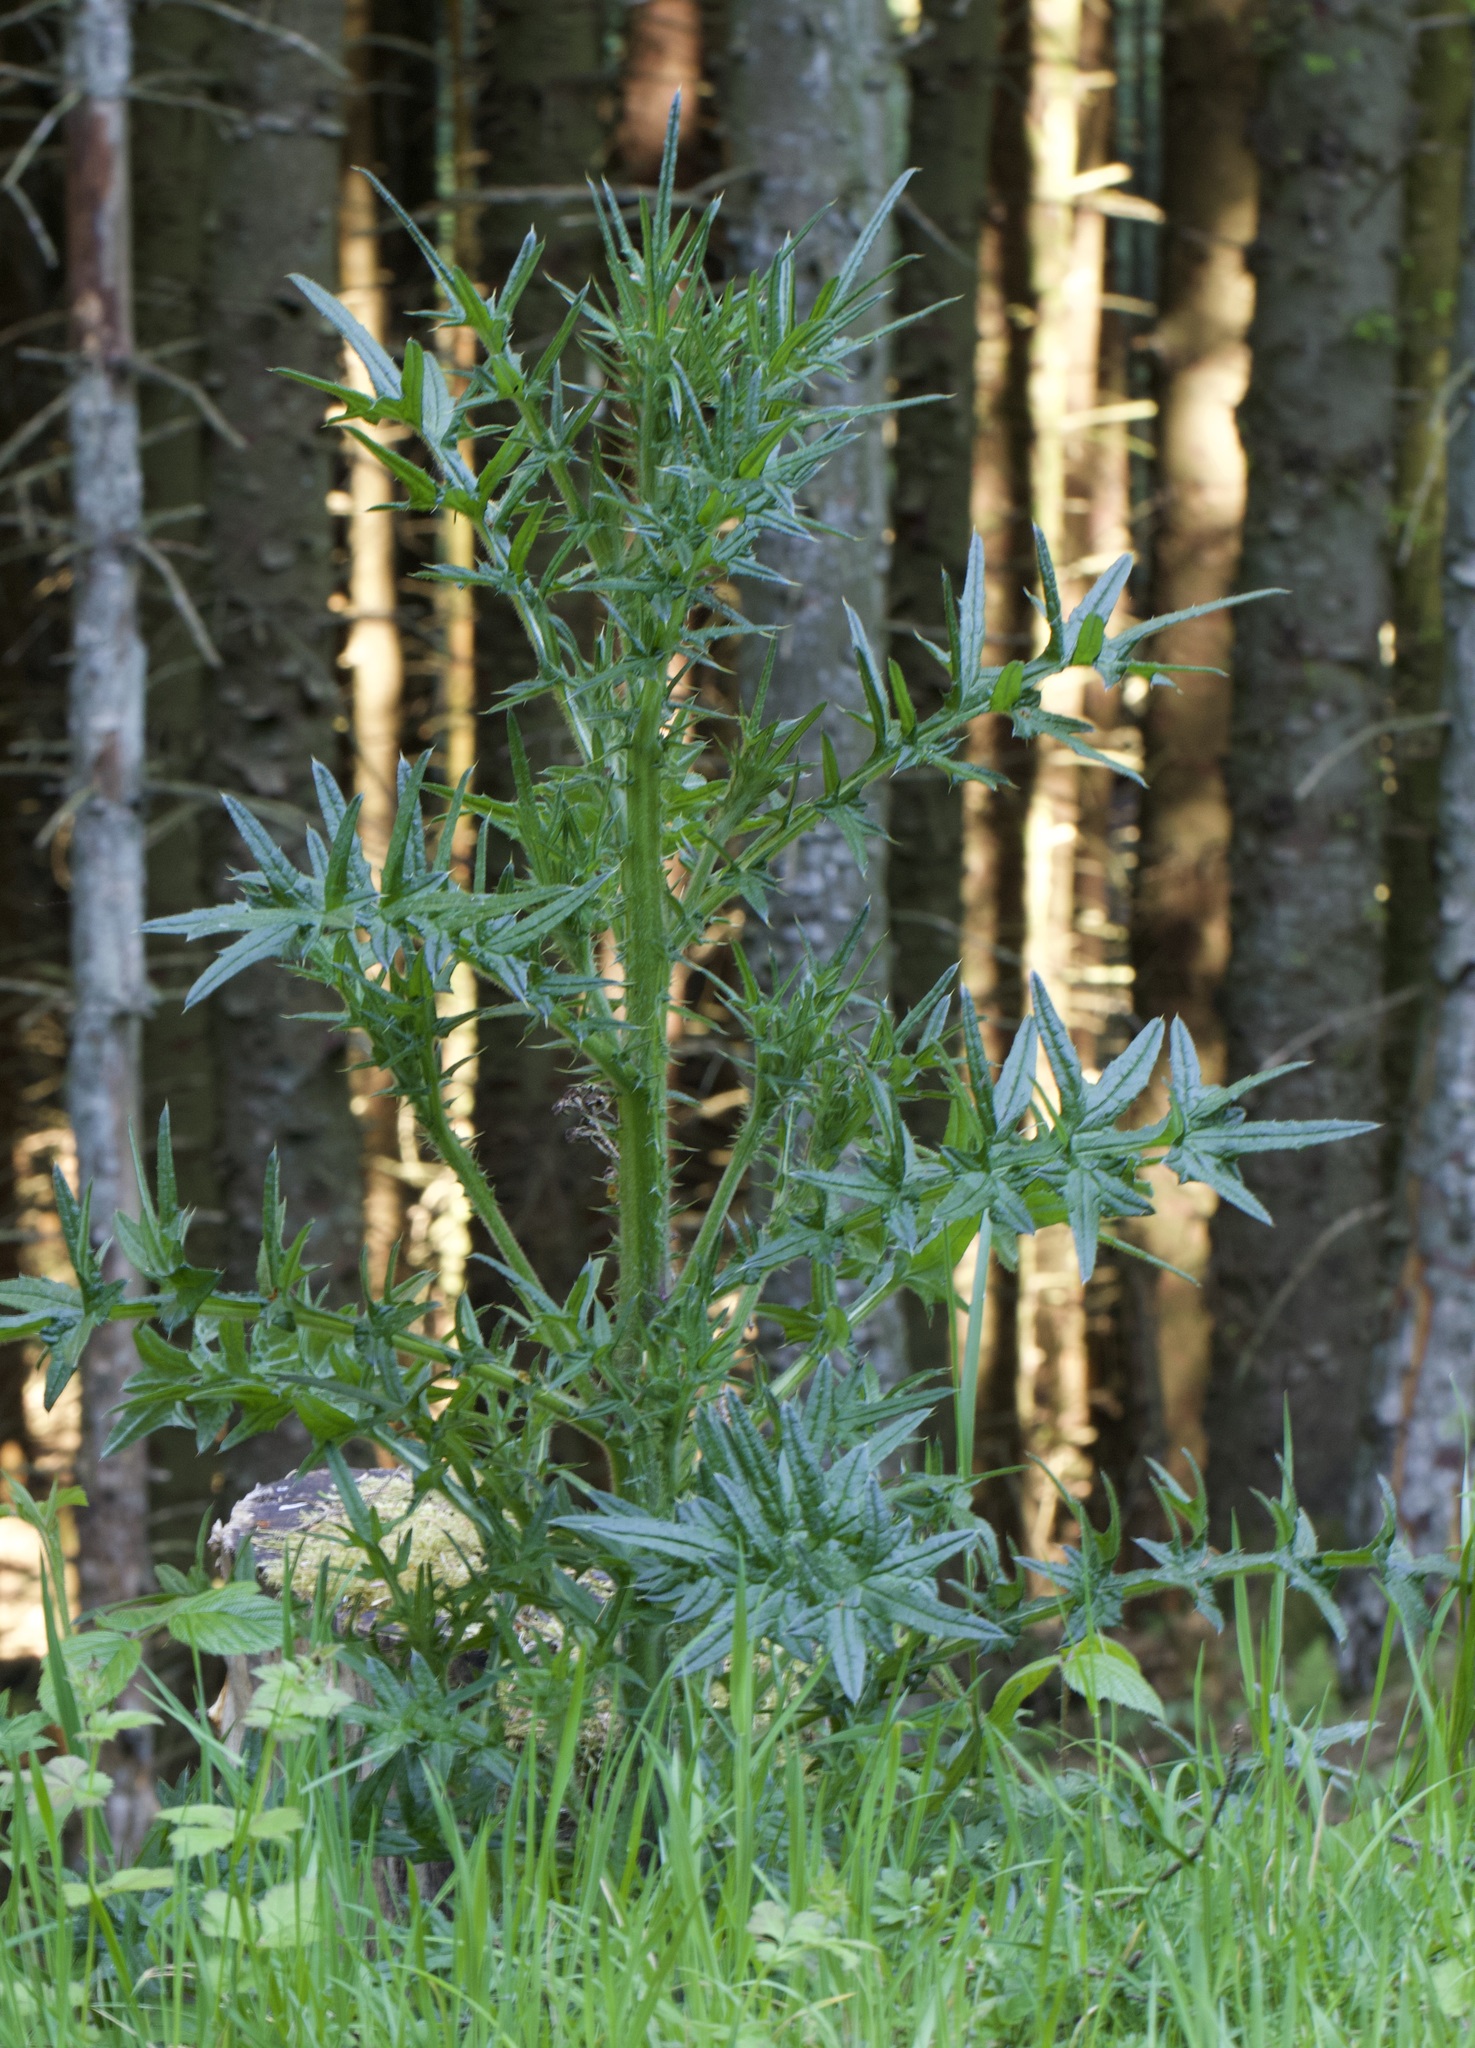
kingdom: Plantae
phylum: Tracheophyta
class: Magnoliopsida
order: Asterales
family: Asteraceae
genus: Cirsium
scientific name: Cirsium vulgare
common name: Bull thistle
